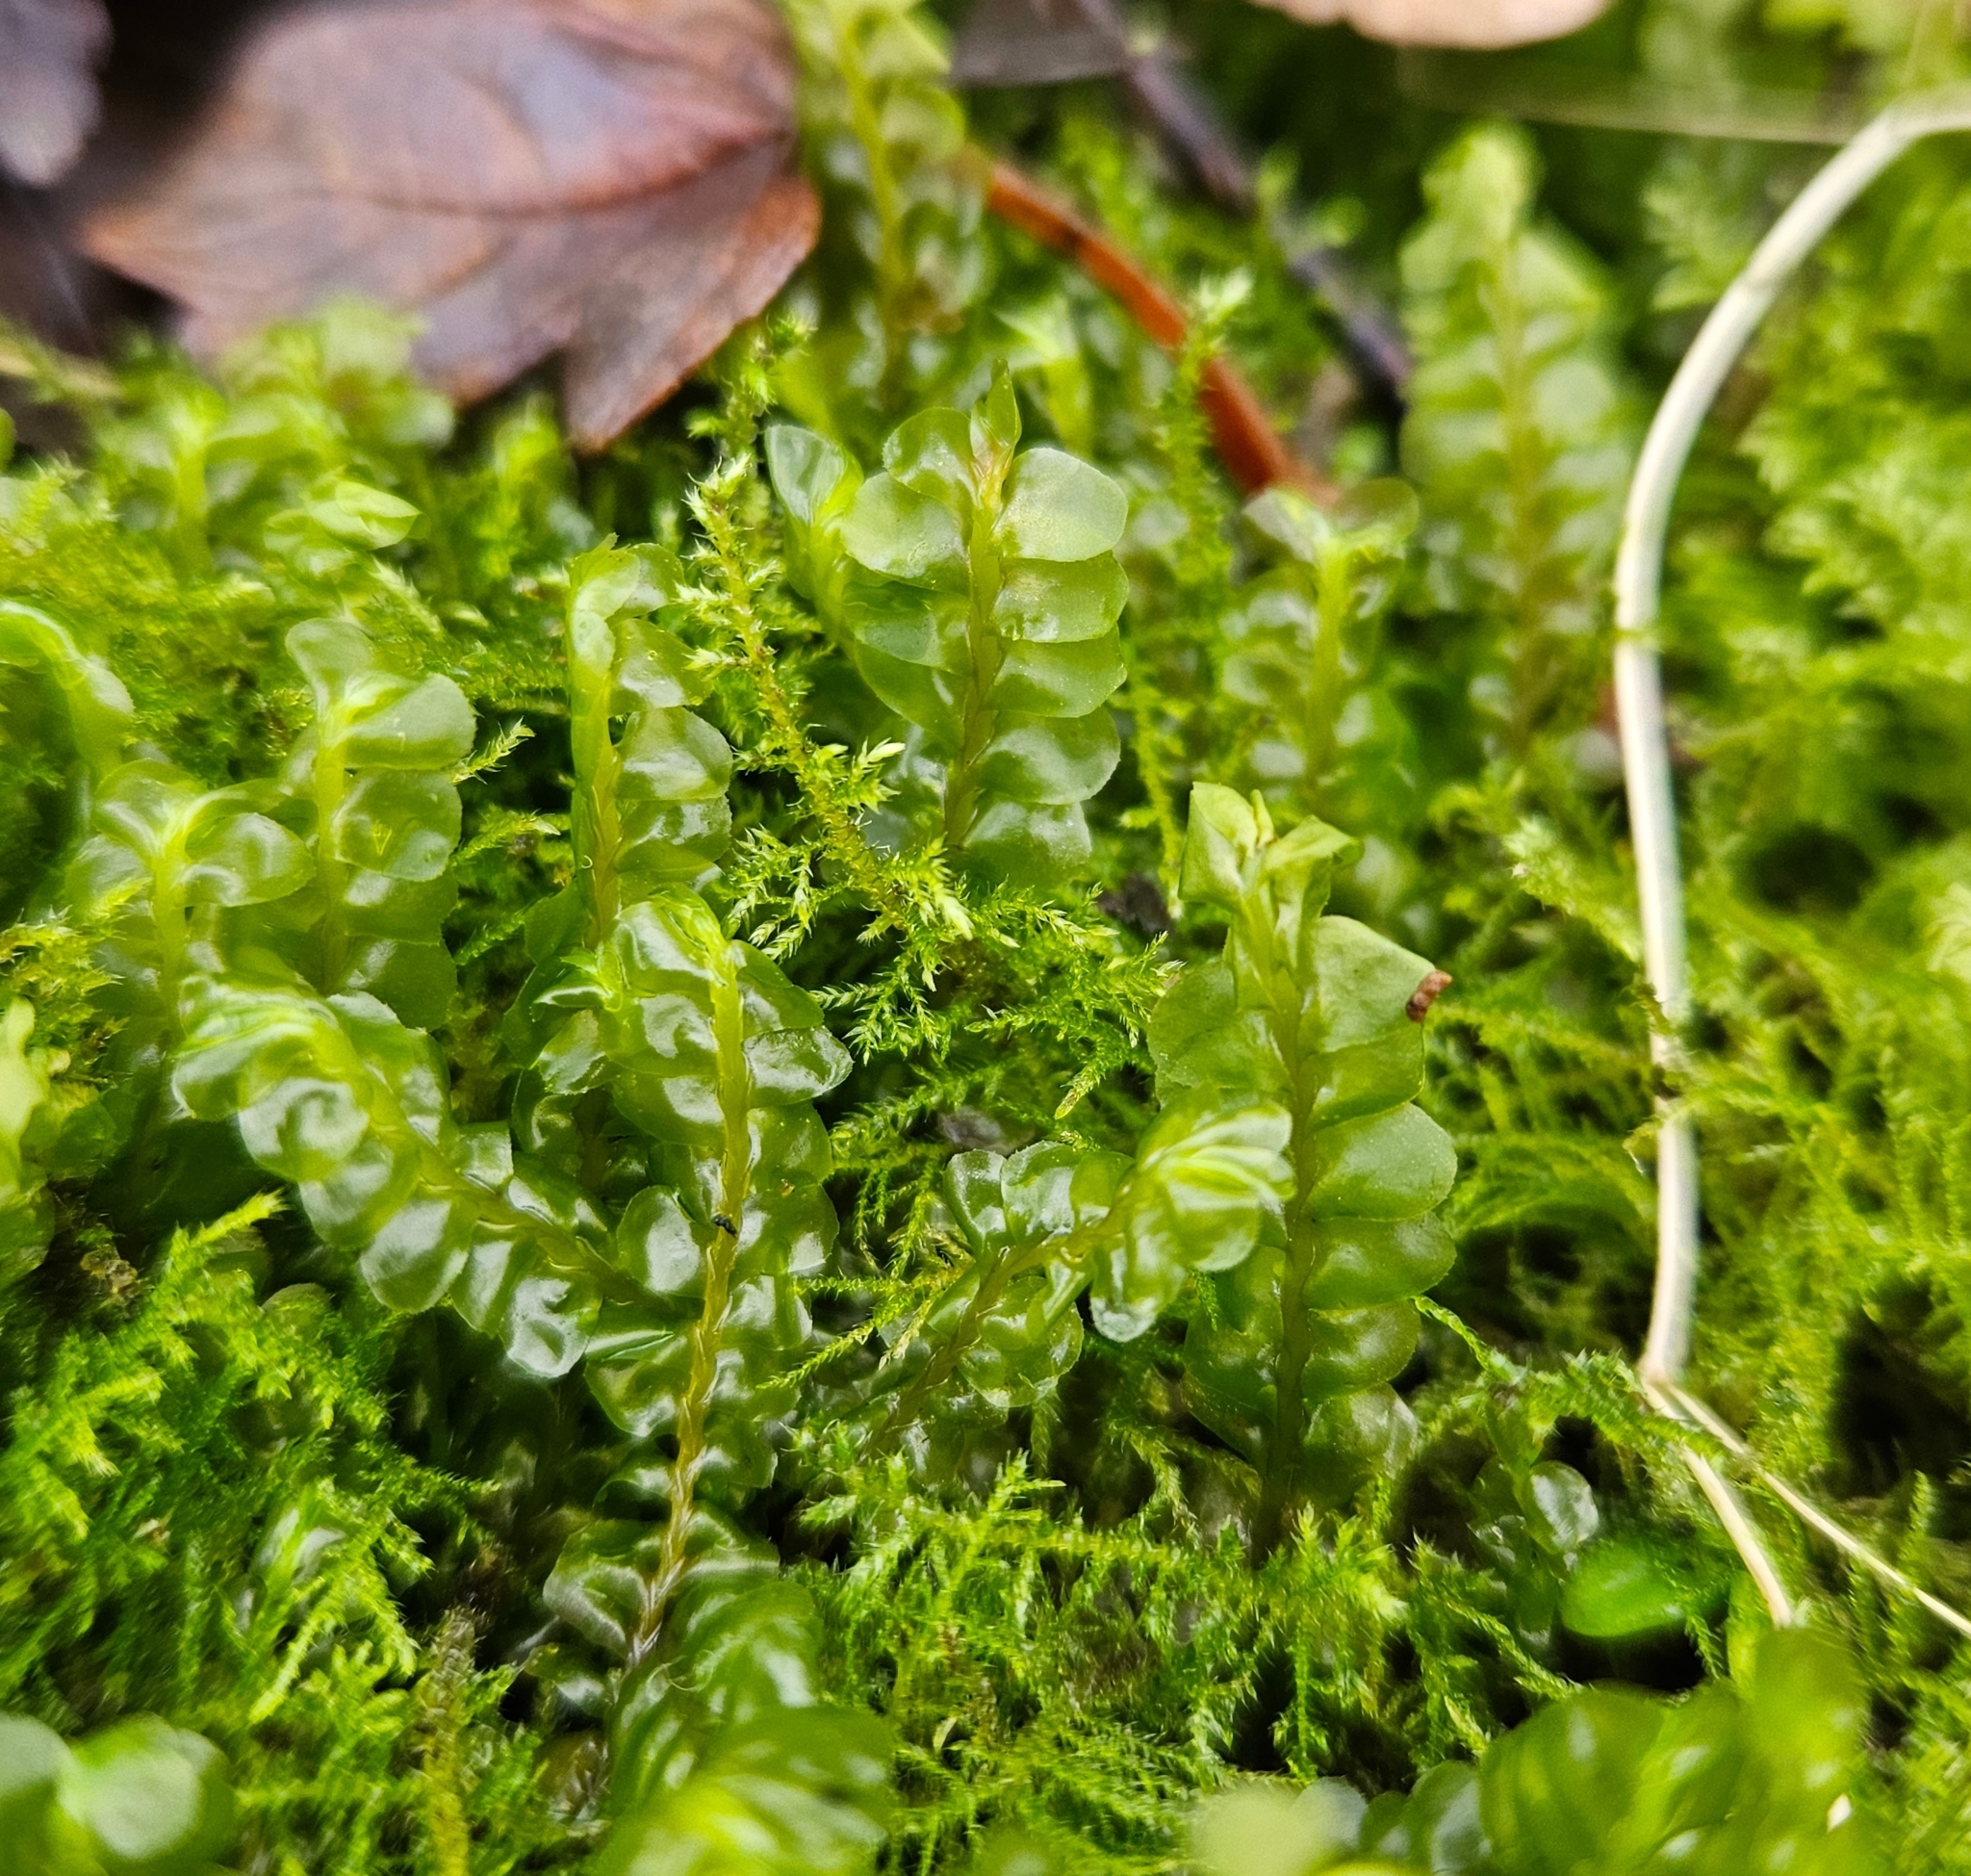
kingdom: Plantae
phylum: Marchantiophyta
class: Jungermanniopsida
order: Jungermanniales
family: Plagiochilaceae
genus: Plagiochila
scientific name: Plagiochila asplenioides
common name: Greater featherwort
